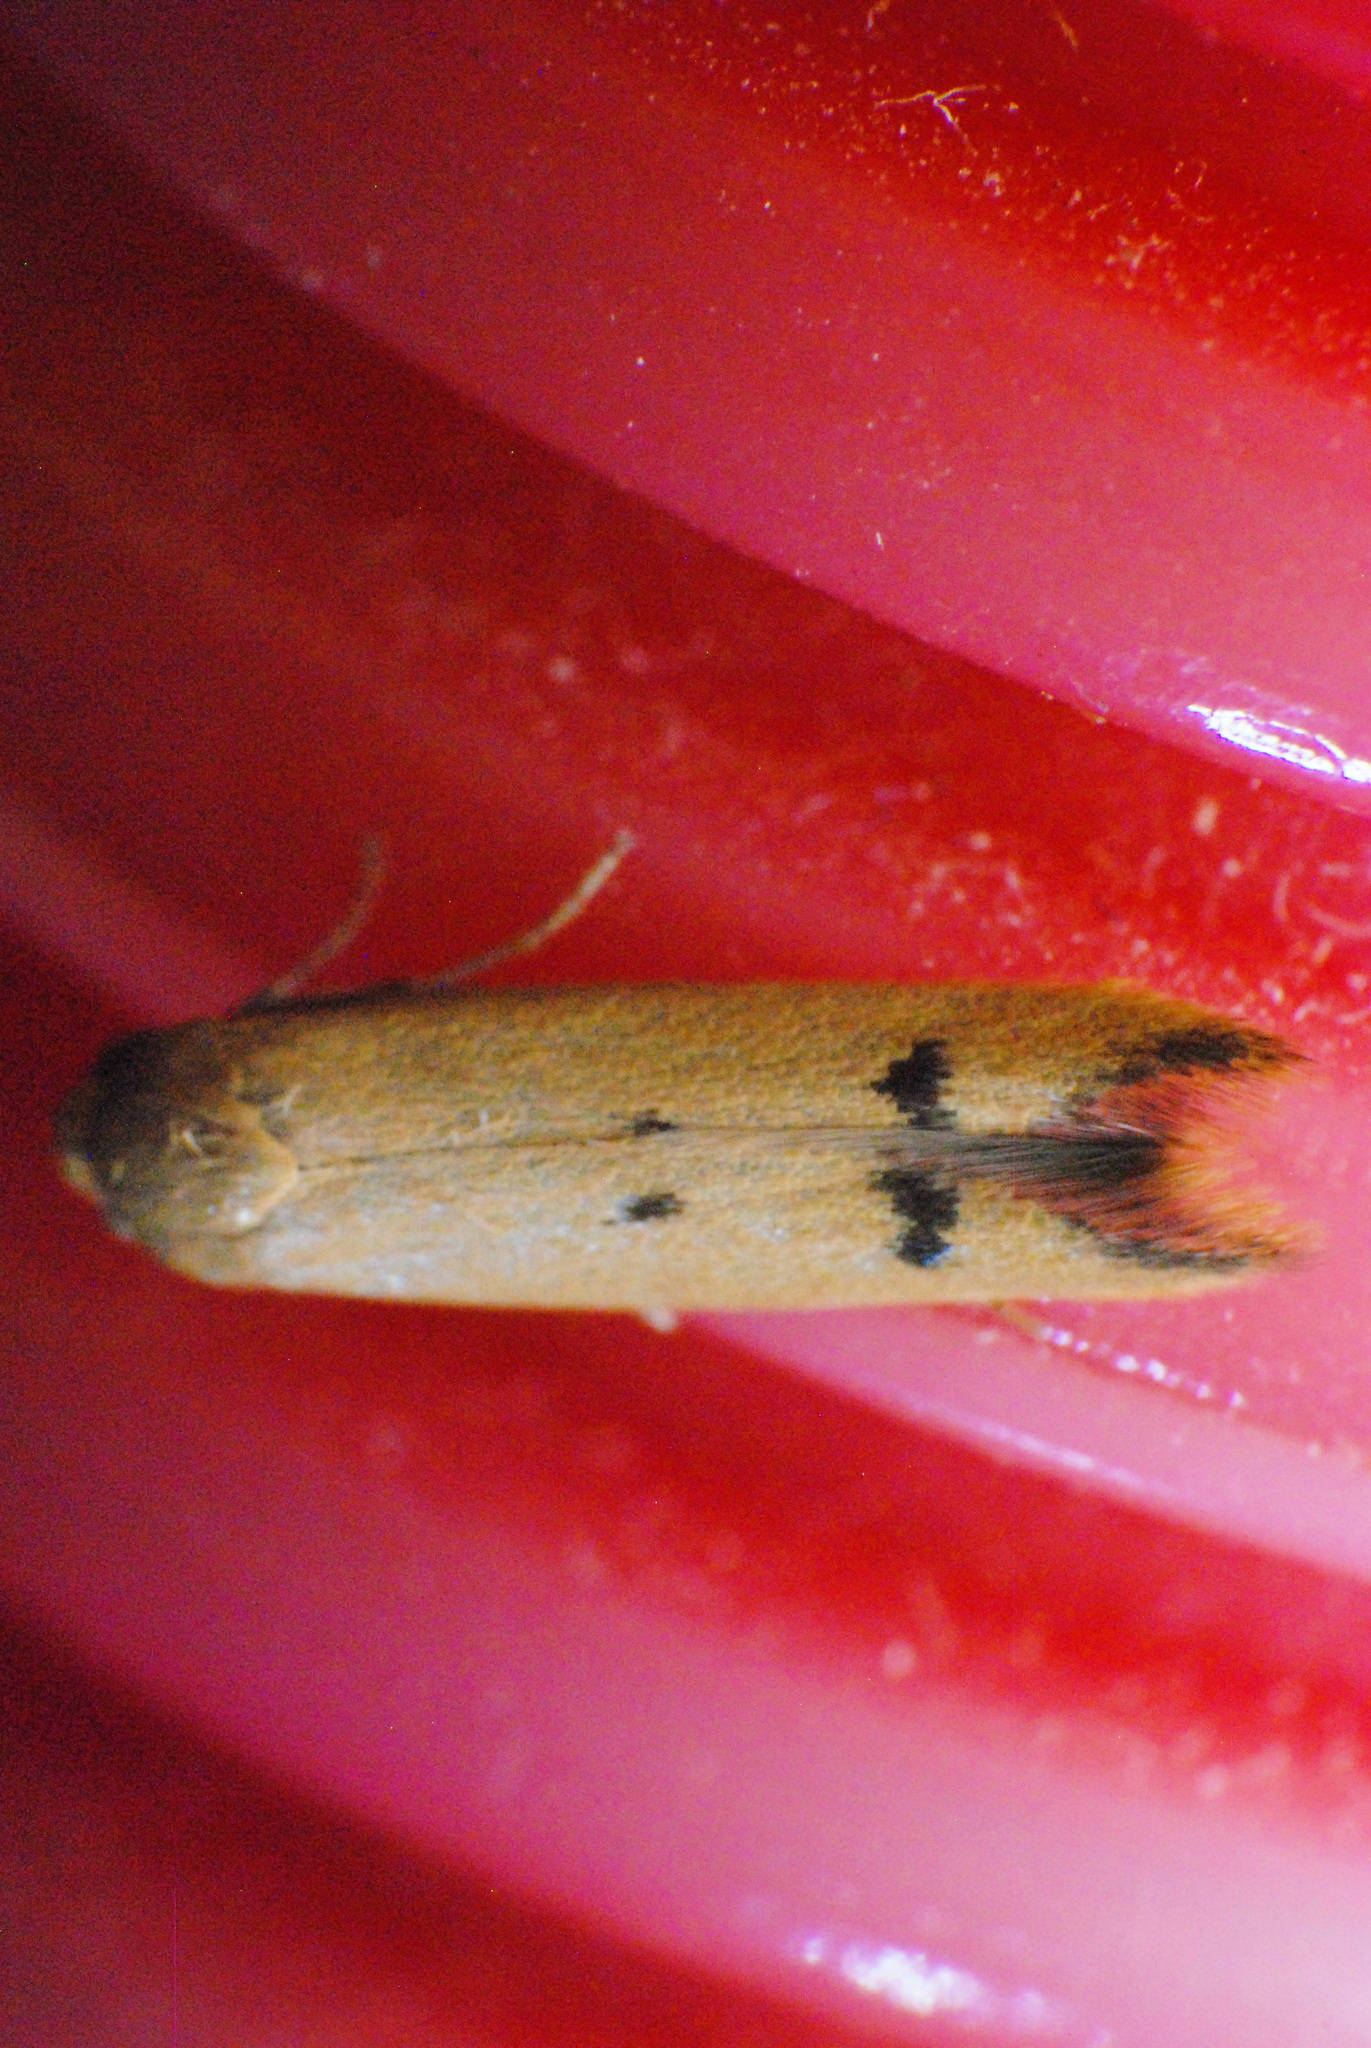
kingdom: Animalia
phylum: Arthropoda
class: Insecta
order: Lepidoptera
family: Oecophoridae
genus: Tachystola
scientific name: Tachystola hemisema
